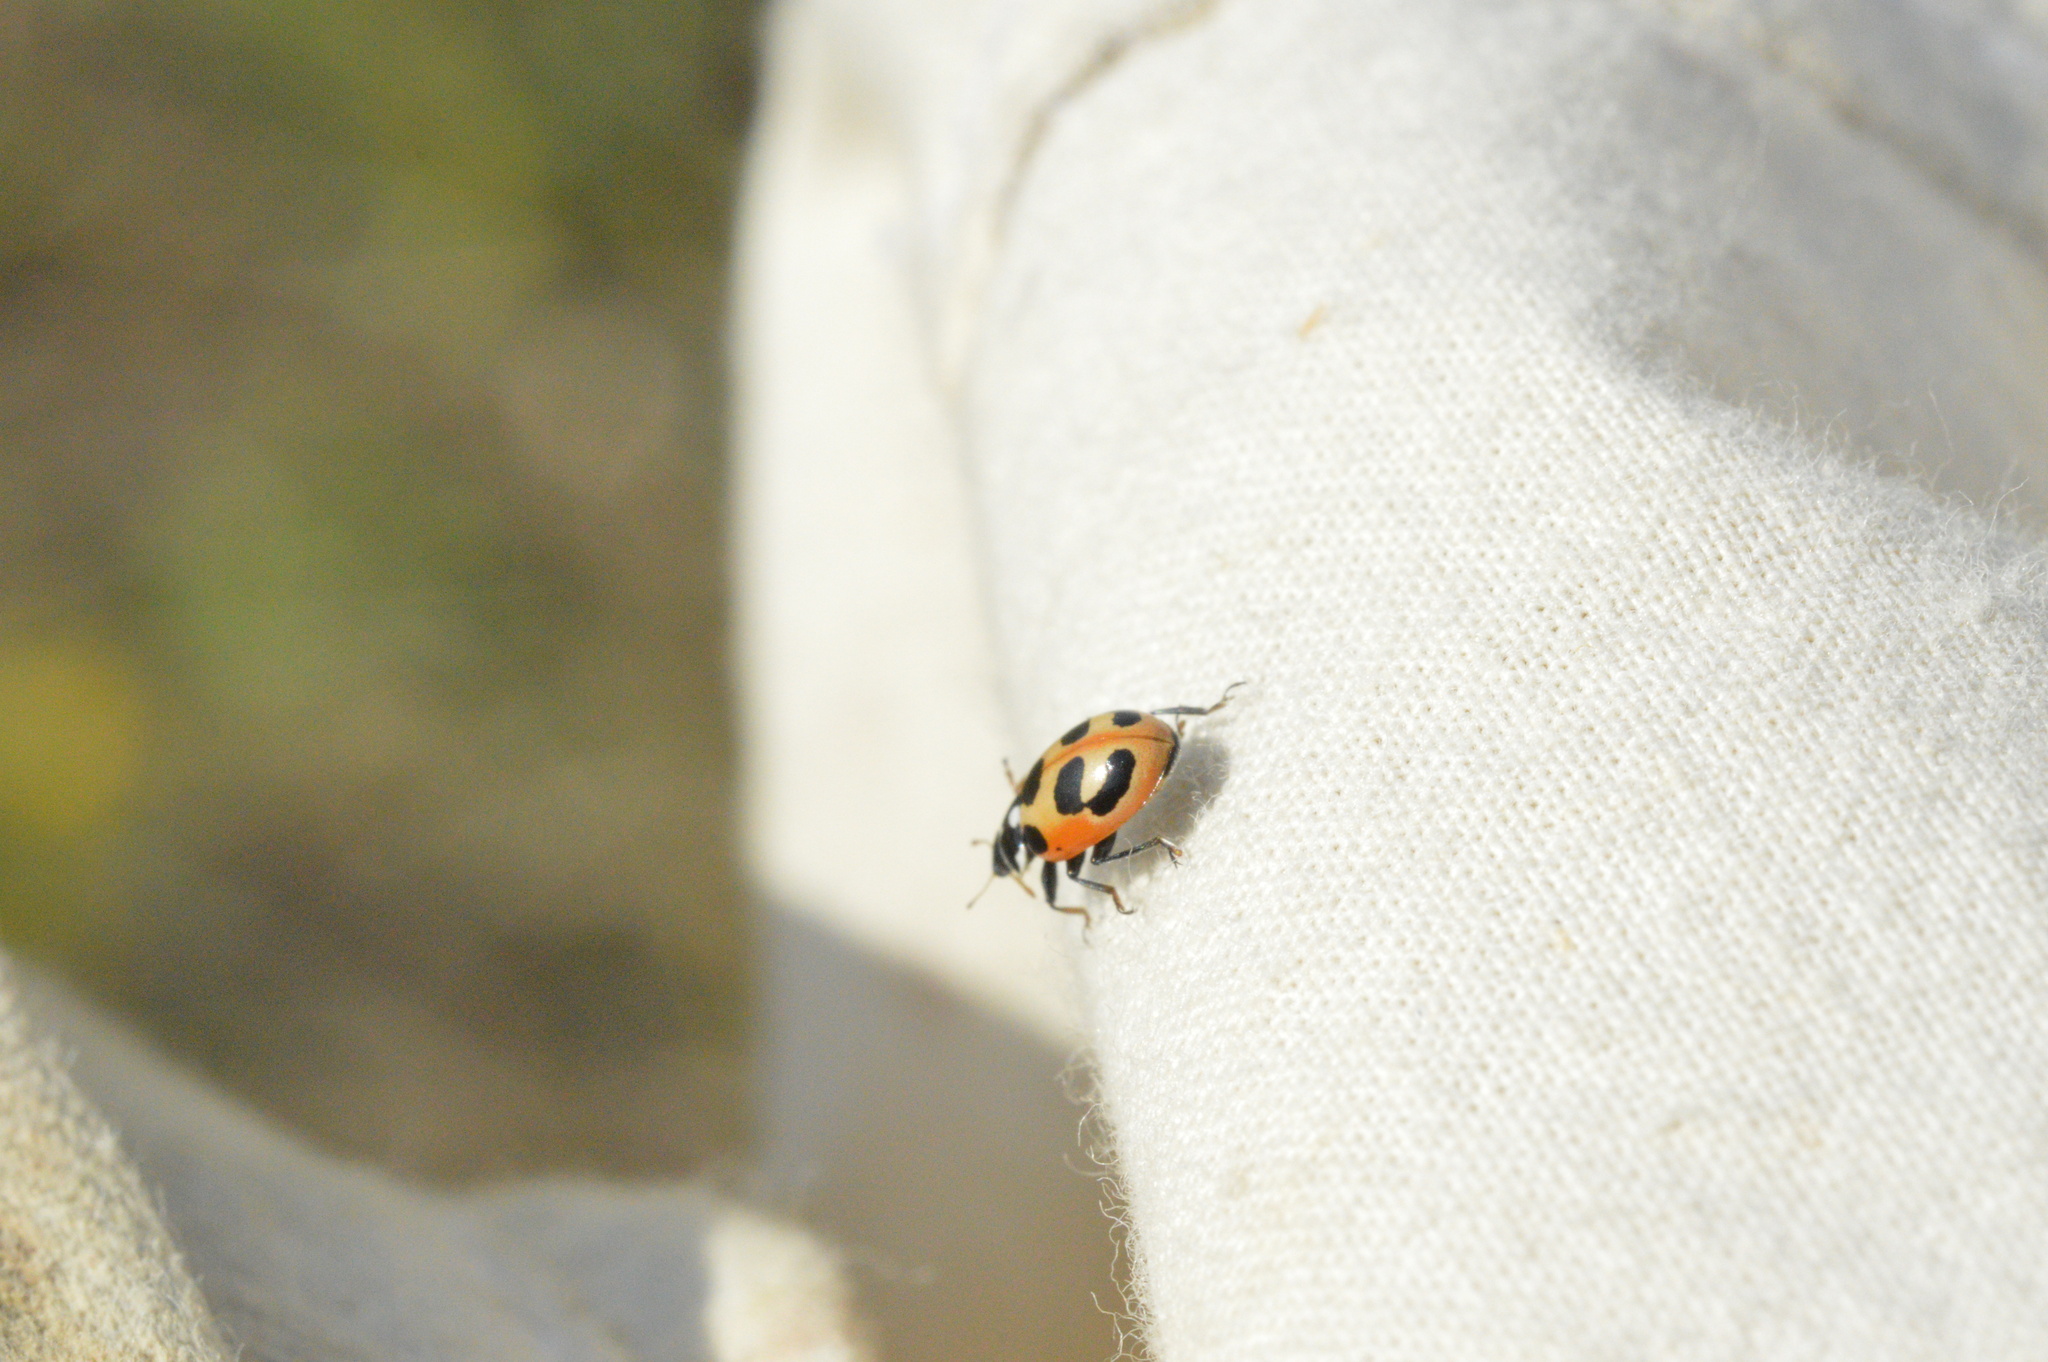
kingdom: Animalia
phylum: Arthropoda
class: Insecta
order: Coleoptera
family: Coccinellidae
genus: Hippodamia
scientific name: Hippodamia parenthesis
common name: Parenthesis lady beetle
